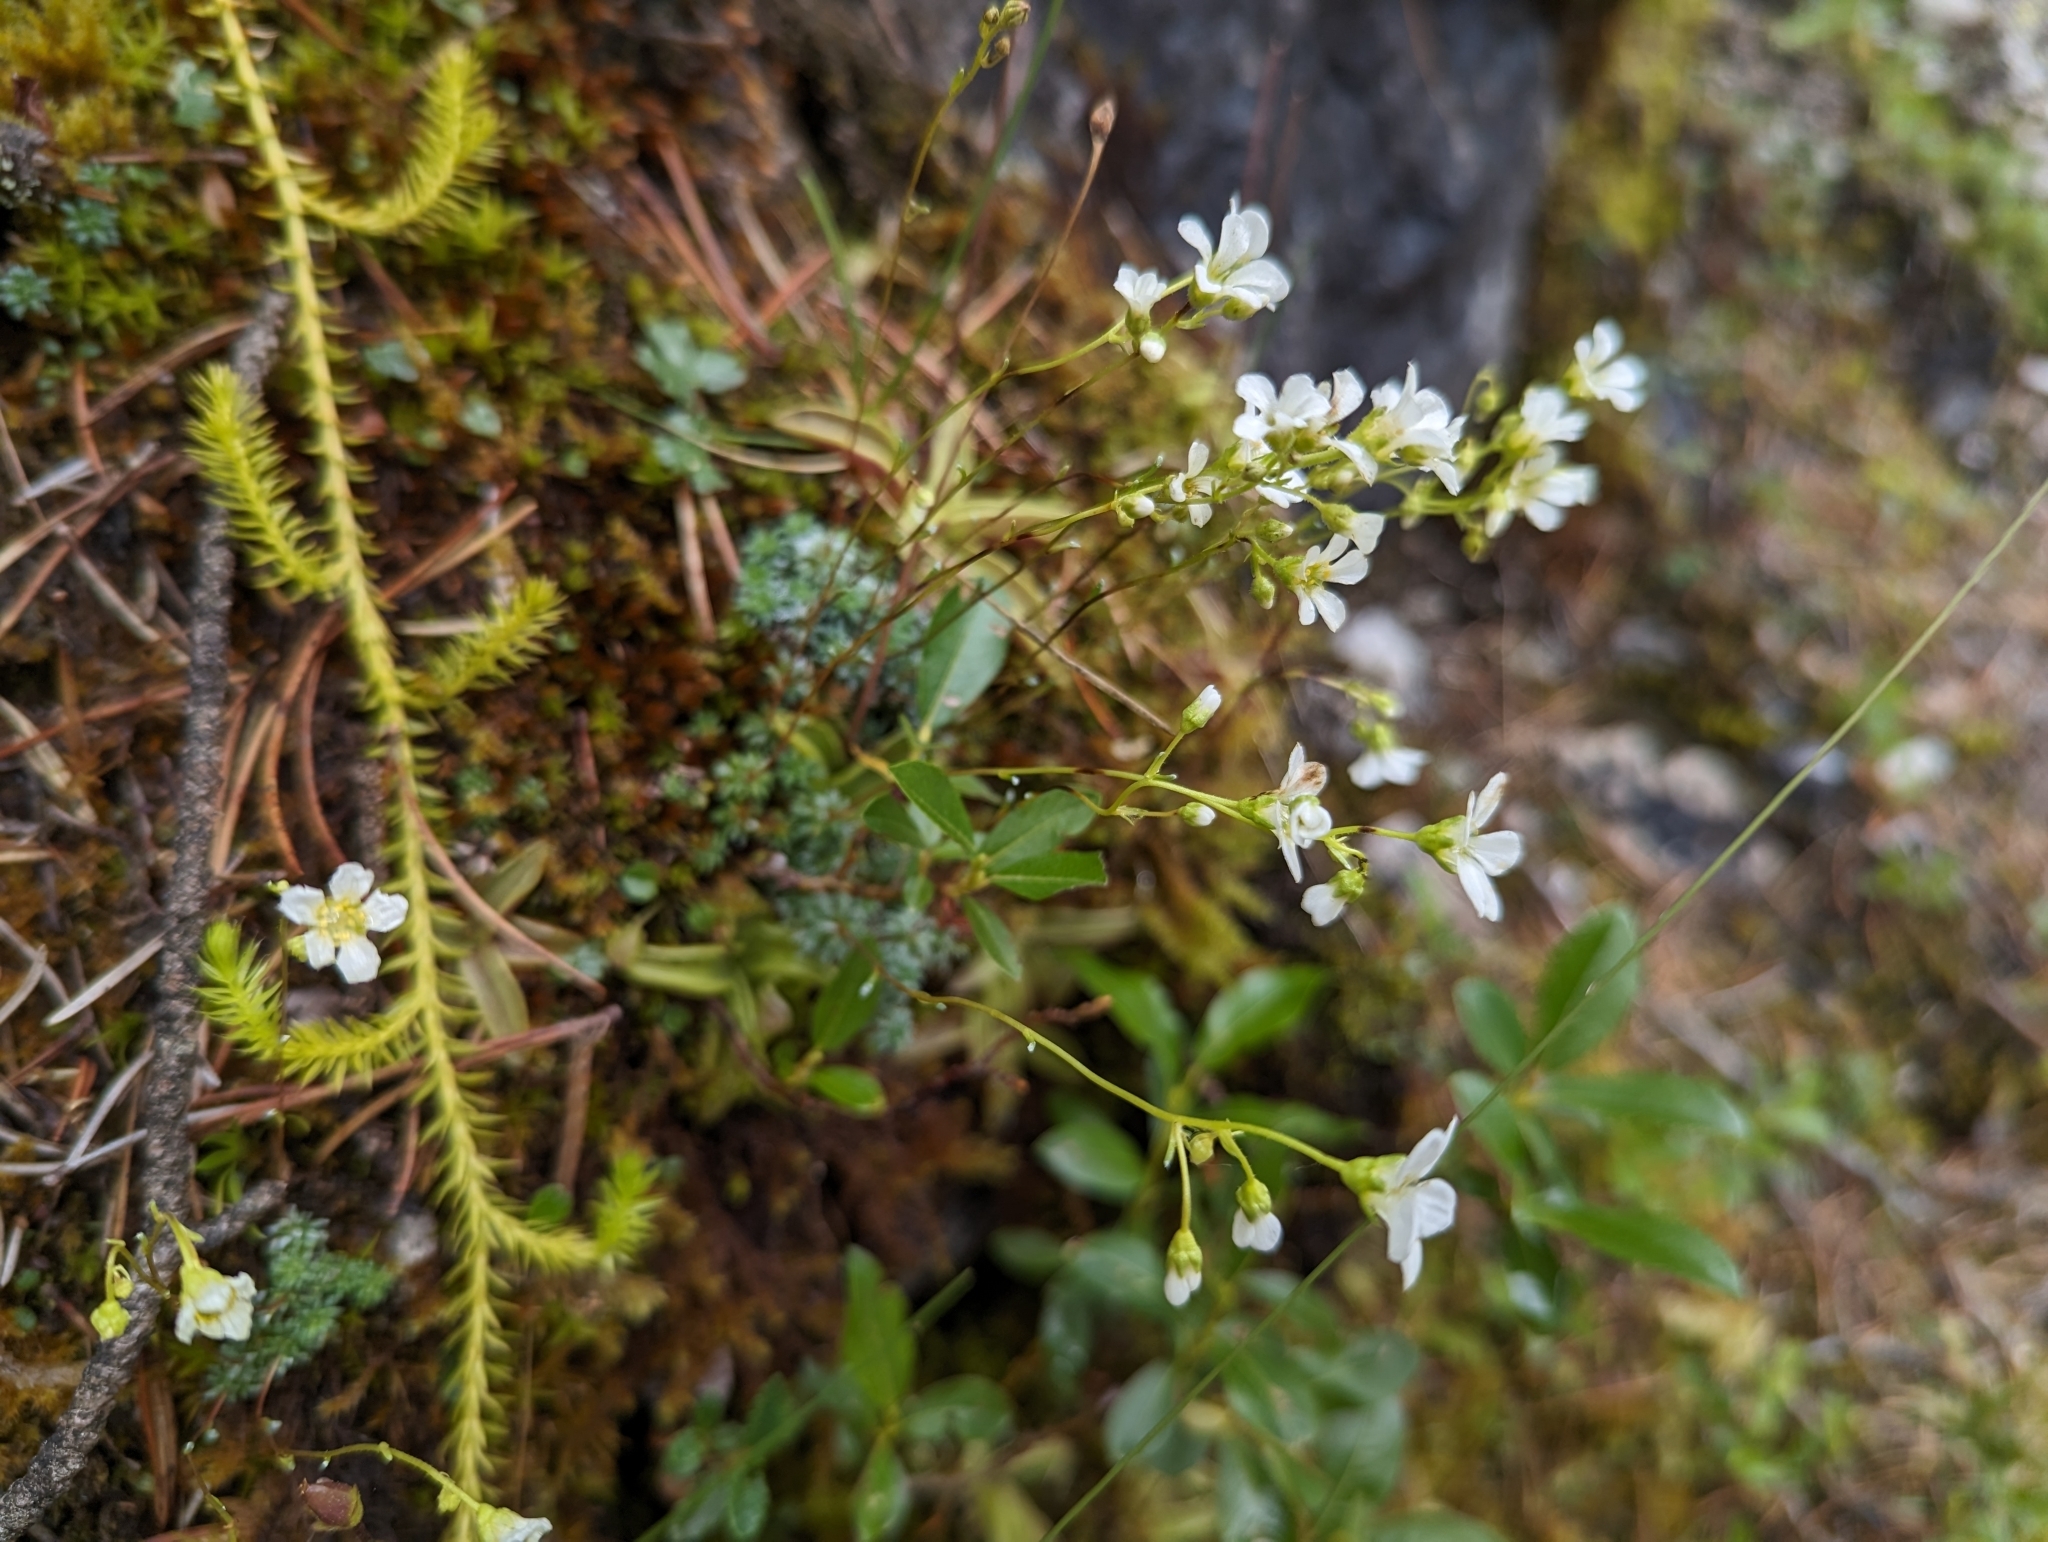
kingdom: Plantae
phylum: Tracheophyta
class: Magnoliopsida
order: Saxifragales
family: Saxifragaceae
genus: Saxifraga
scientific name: Saxifraga caesia
